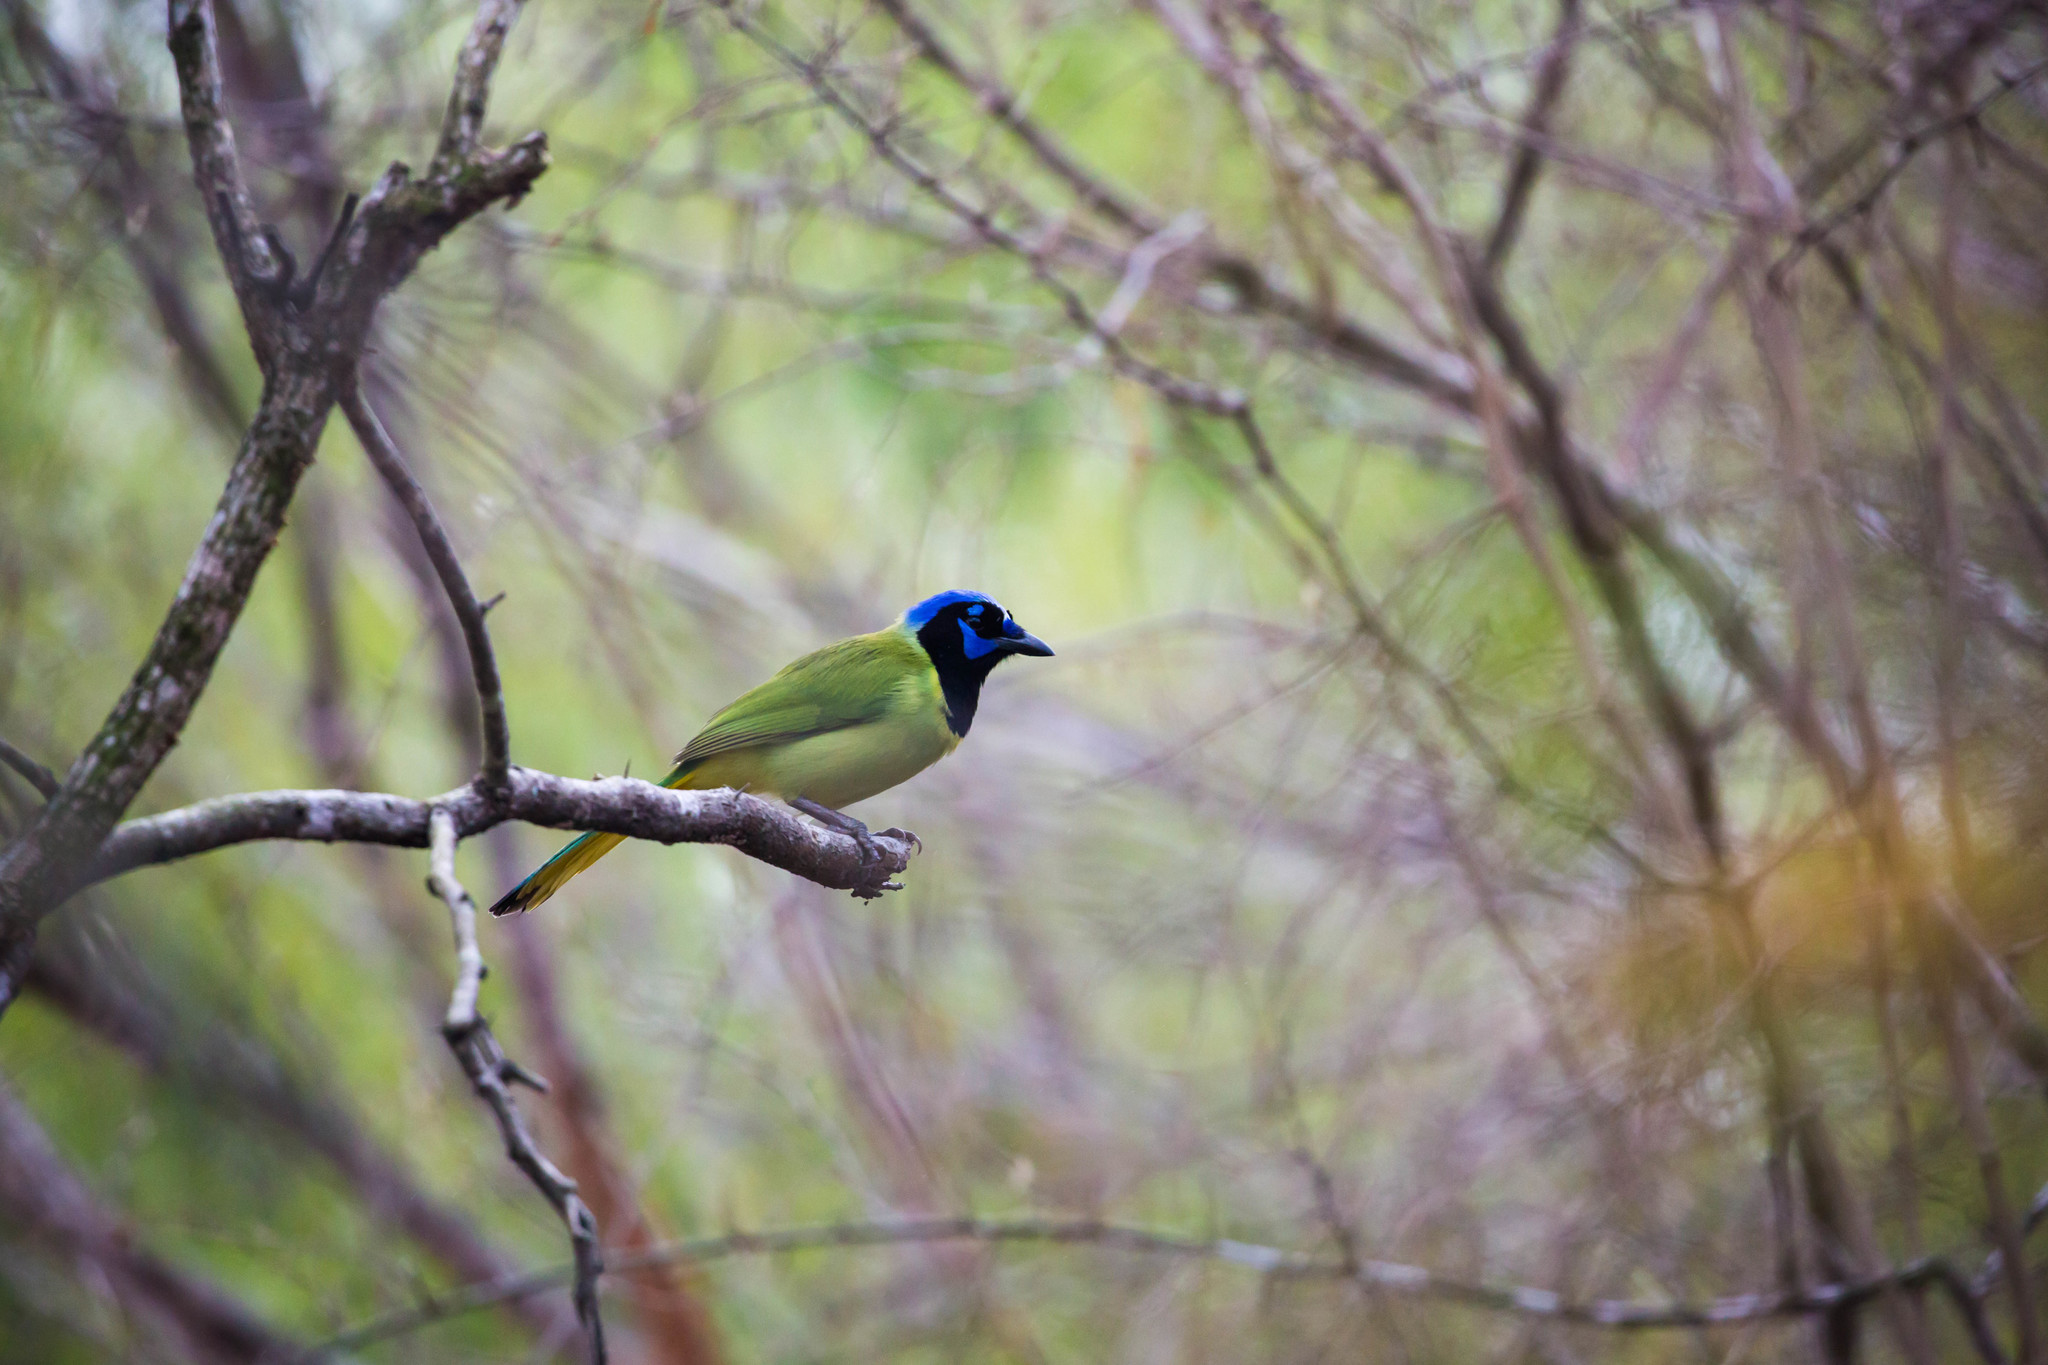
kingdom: Animalia
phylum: Chordata
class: Aves
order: Passeriformes
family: Corvidae
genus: Cyanocorax
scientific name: Cyanocorax yncas
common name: Green jay
